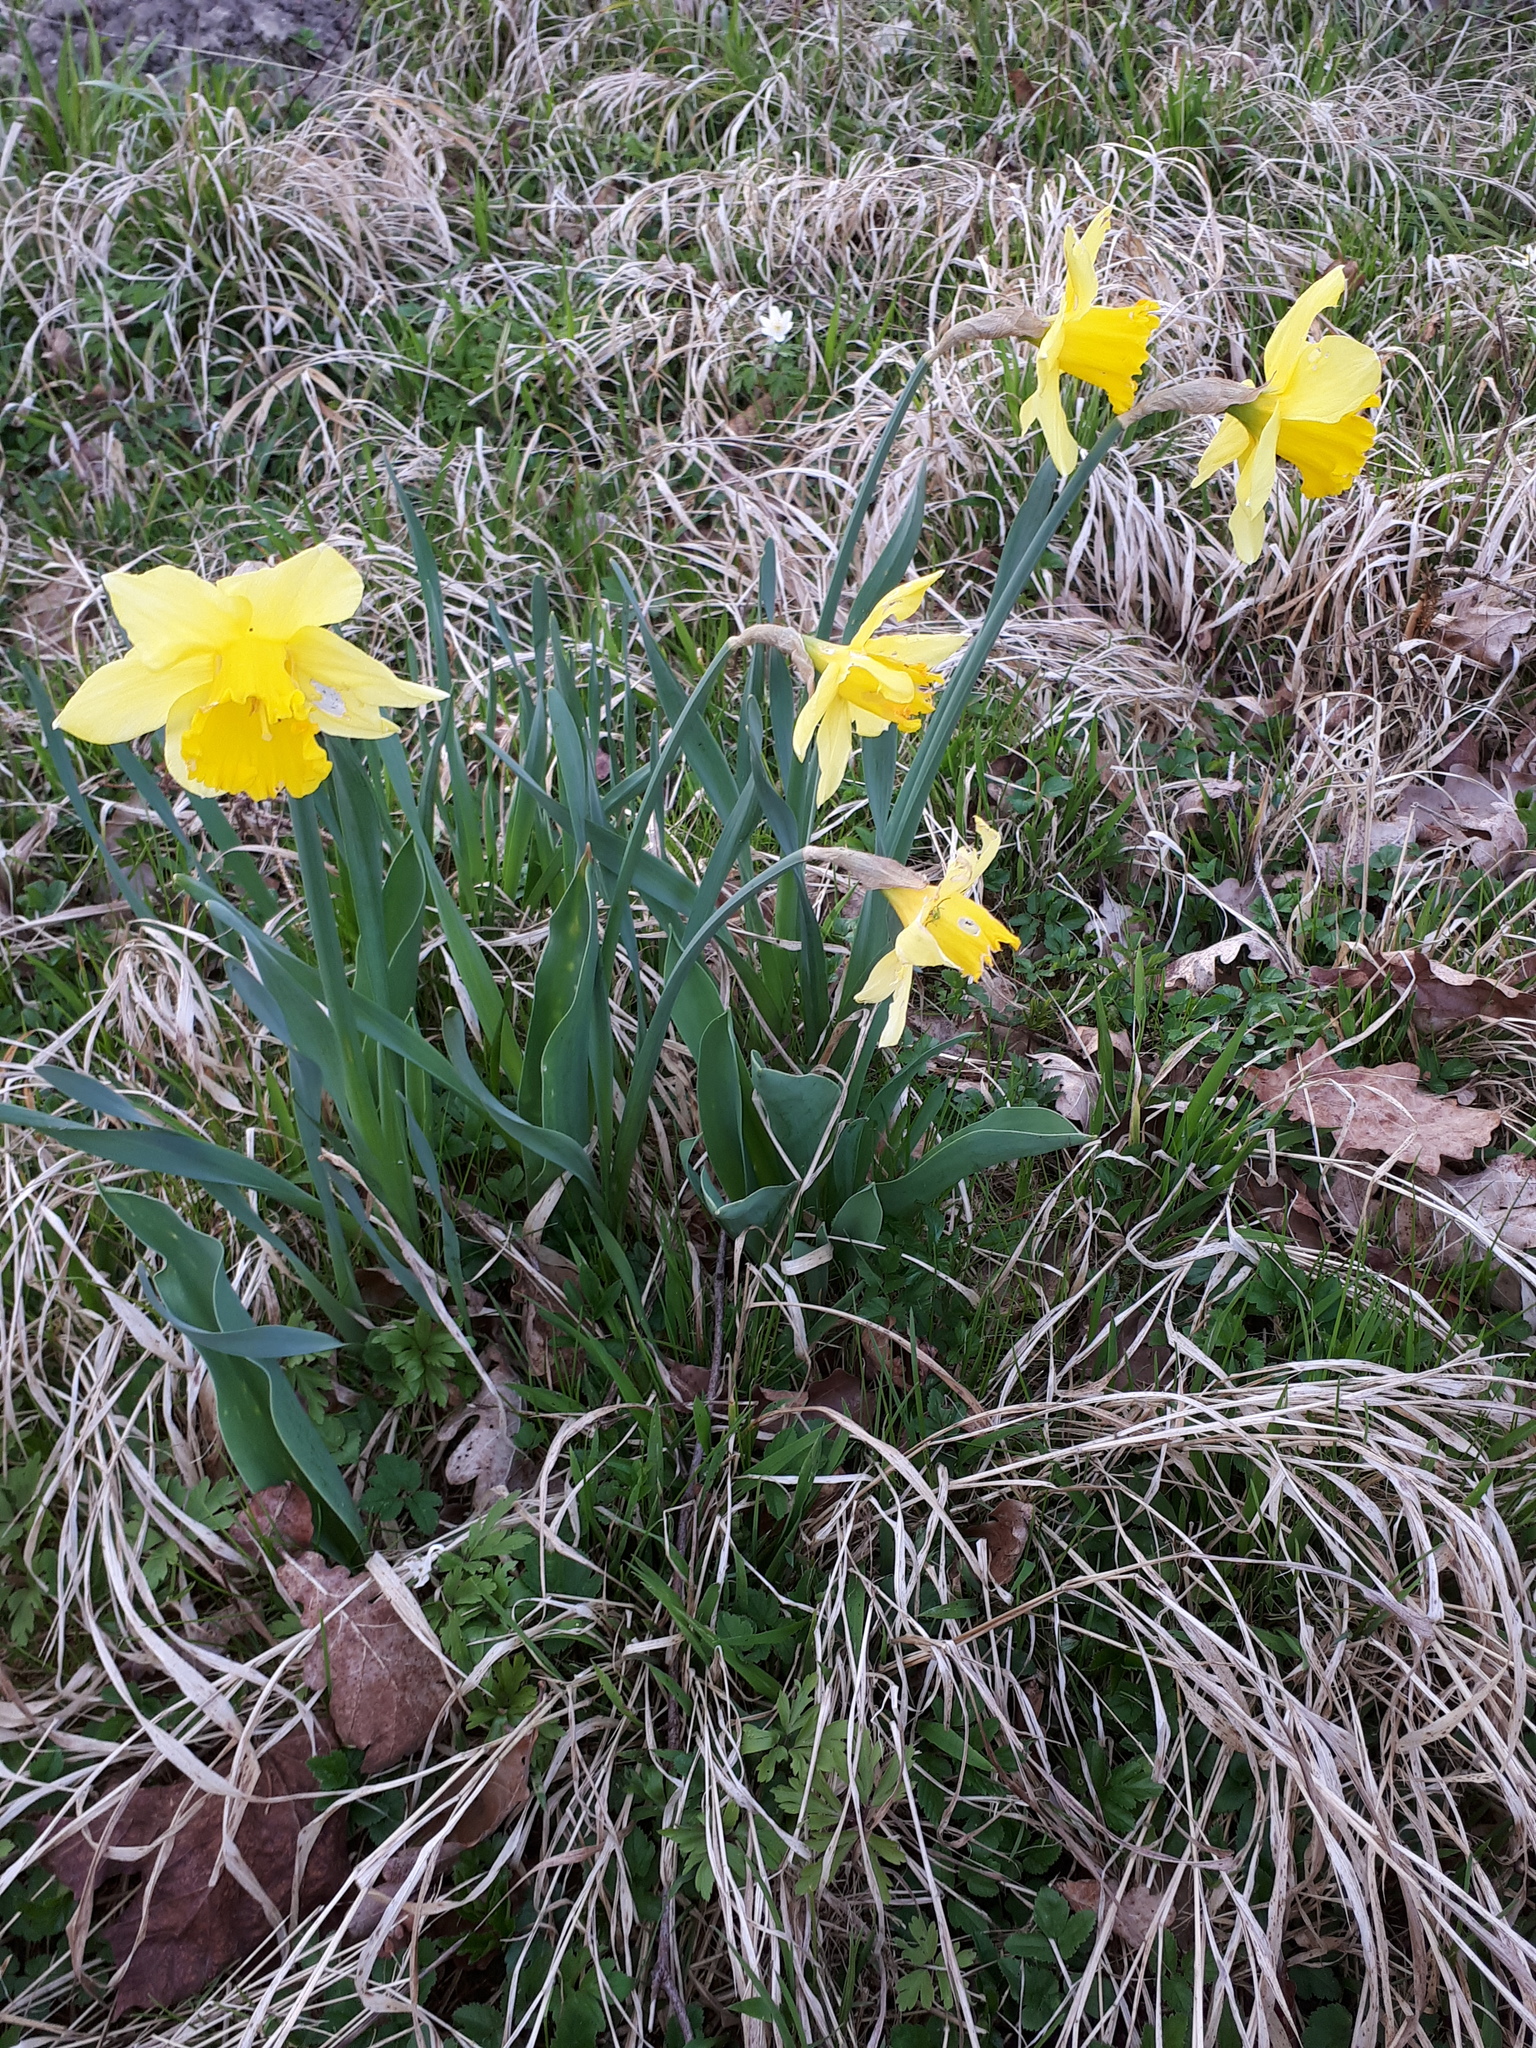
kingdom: Plantae
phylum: Tracheophyta
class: Liliopsida
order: Asparagales
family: Amaryllidaceae
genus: Narcissus
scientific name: Narcissus pseudonarcissus
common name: Daffodil
